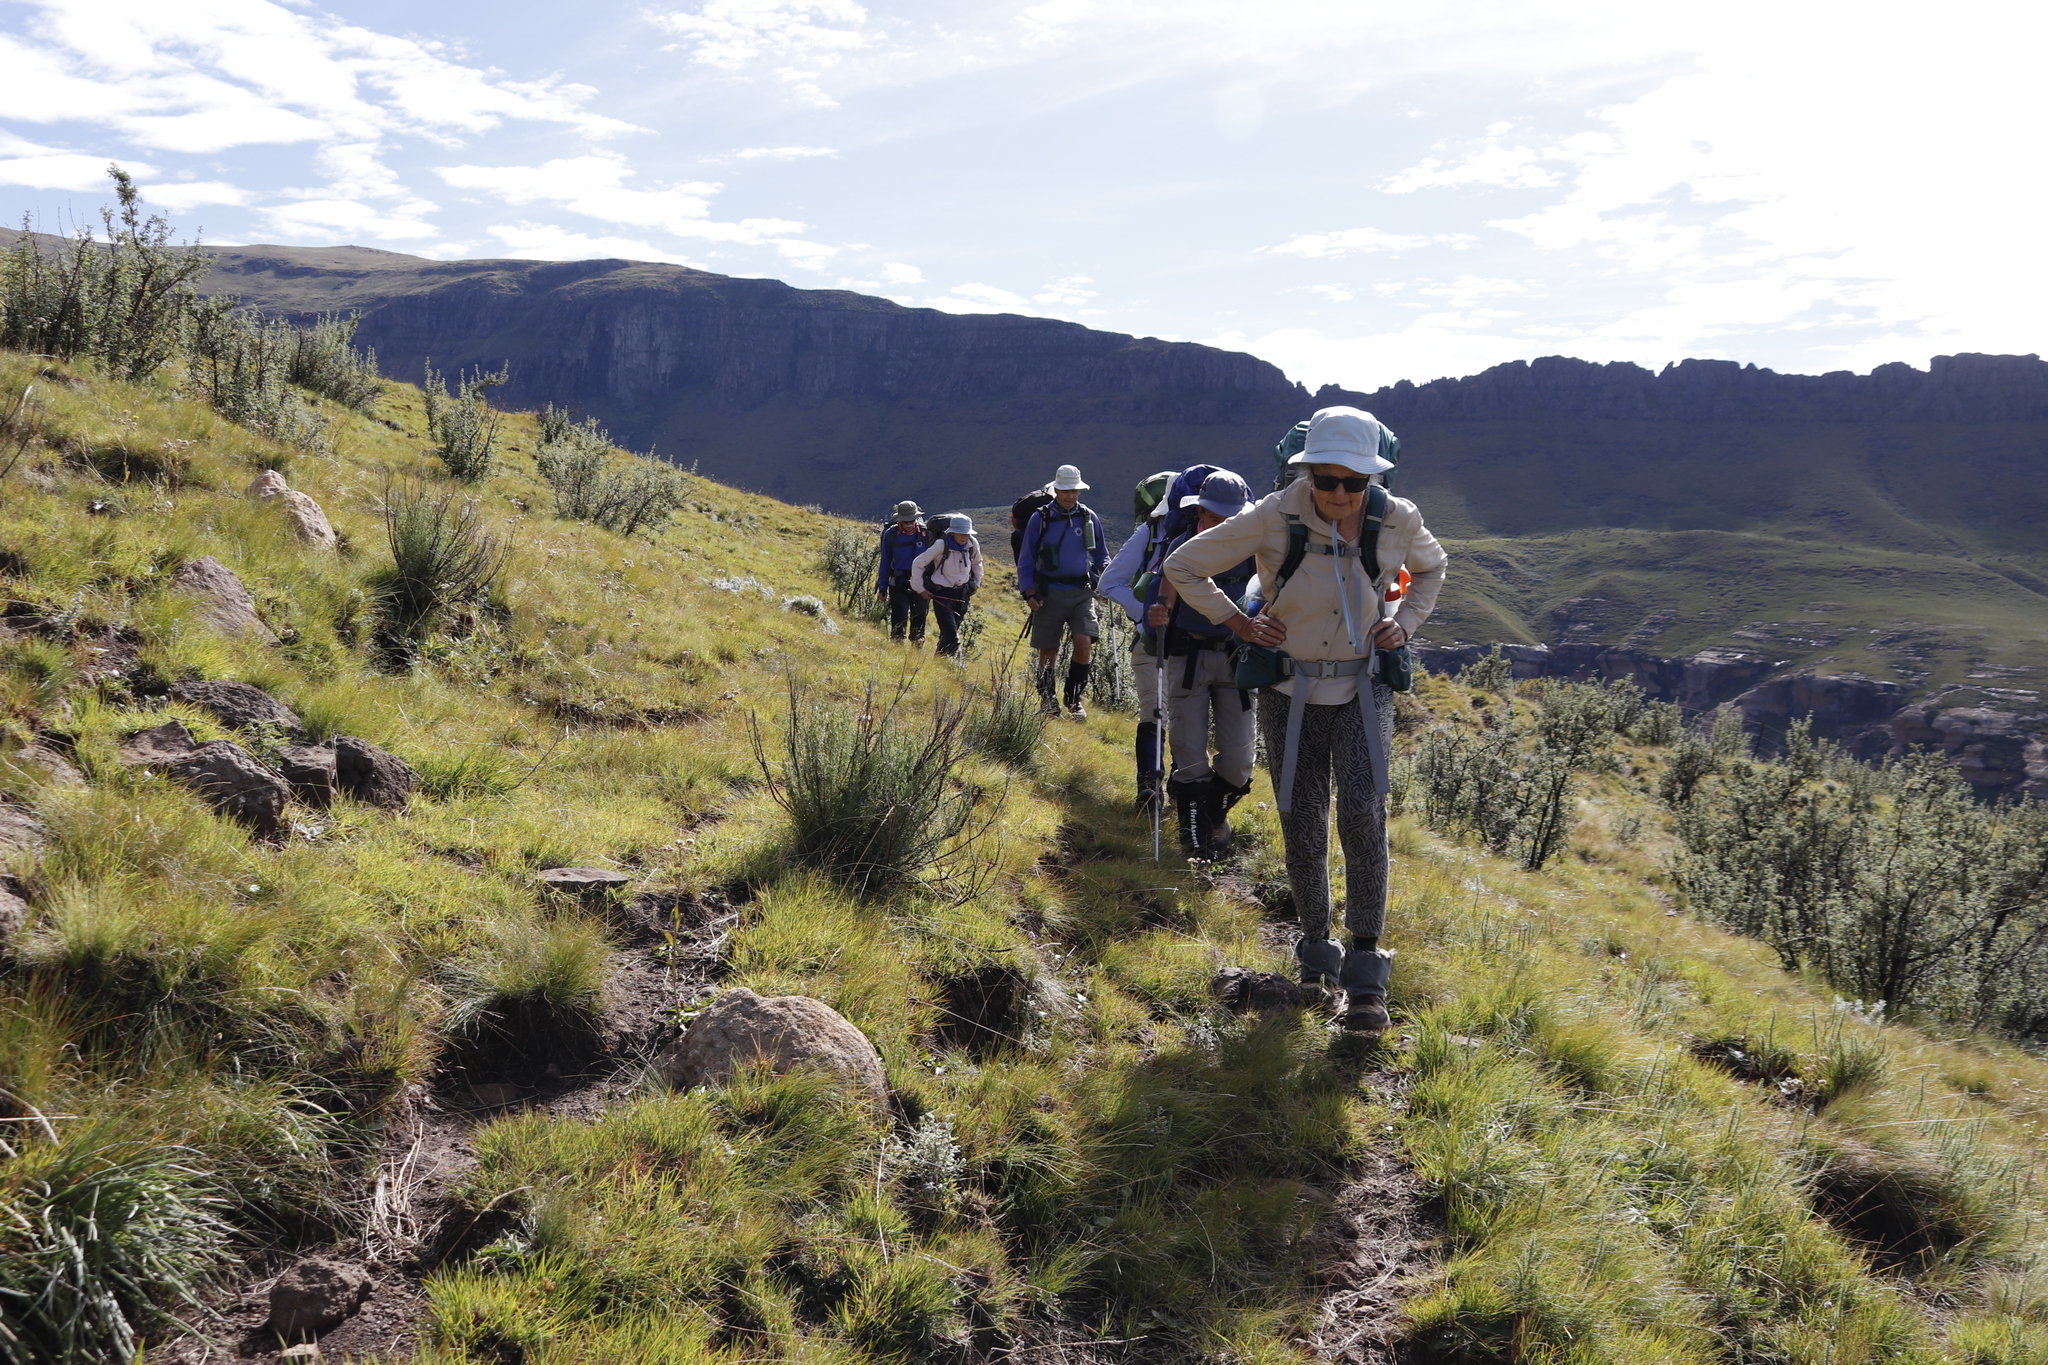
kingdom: Plantae
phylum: Tracheophyta
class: Magnoliopsida
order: Rosales
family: Rosaceae
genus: Leucosidea
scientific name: Leucosidea sericea
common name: Oldwood
